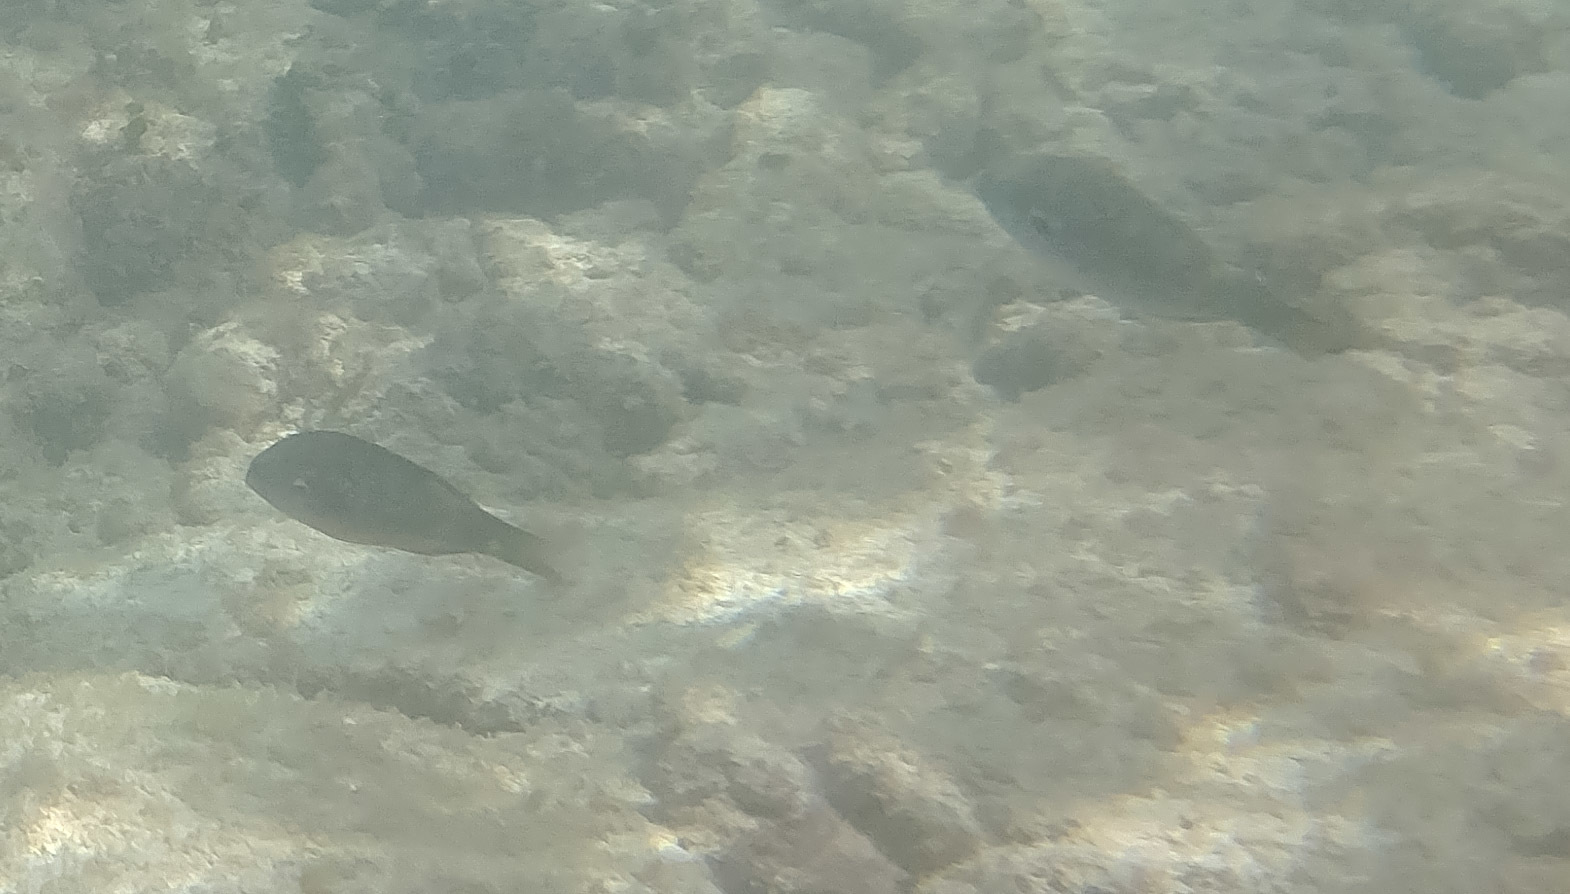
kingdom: Animalia
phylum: Chordata
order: Perciformes
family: Labridae
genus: Thalassoma
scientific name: Thalassoma duperrey
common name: Saddle wrasse
